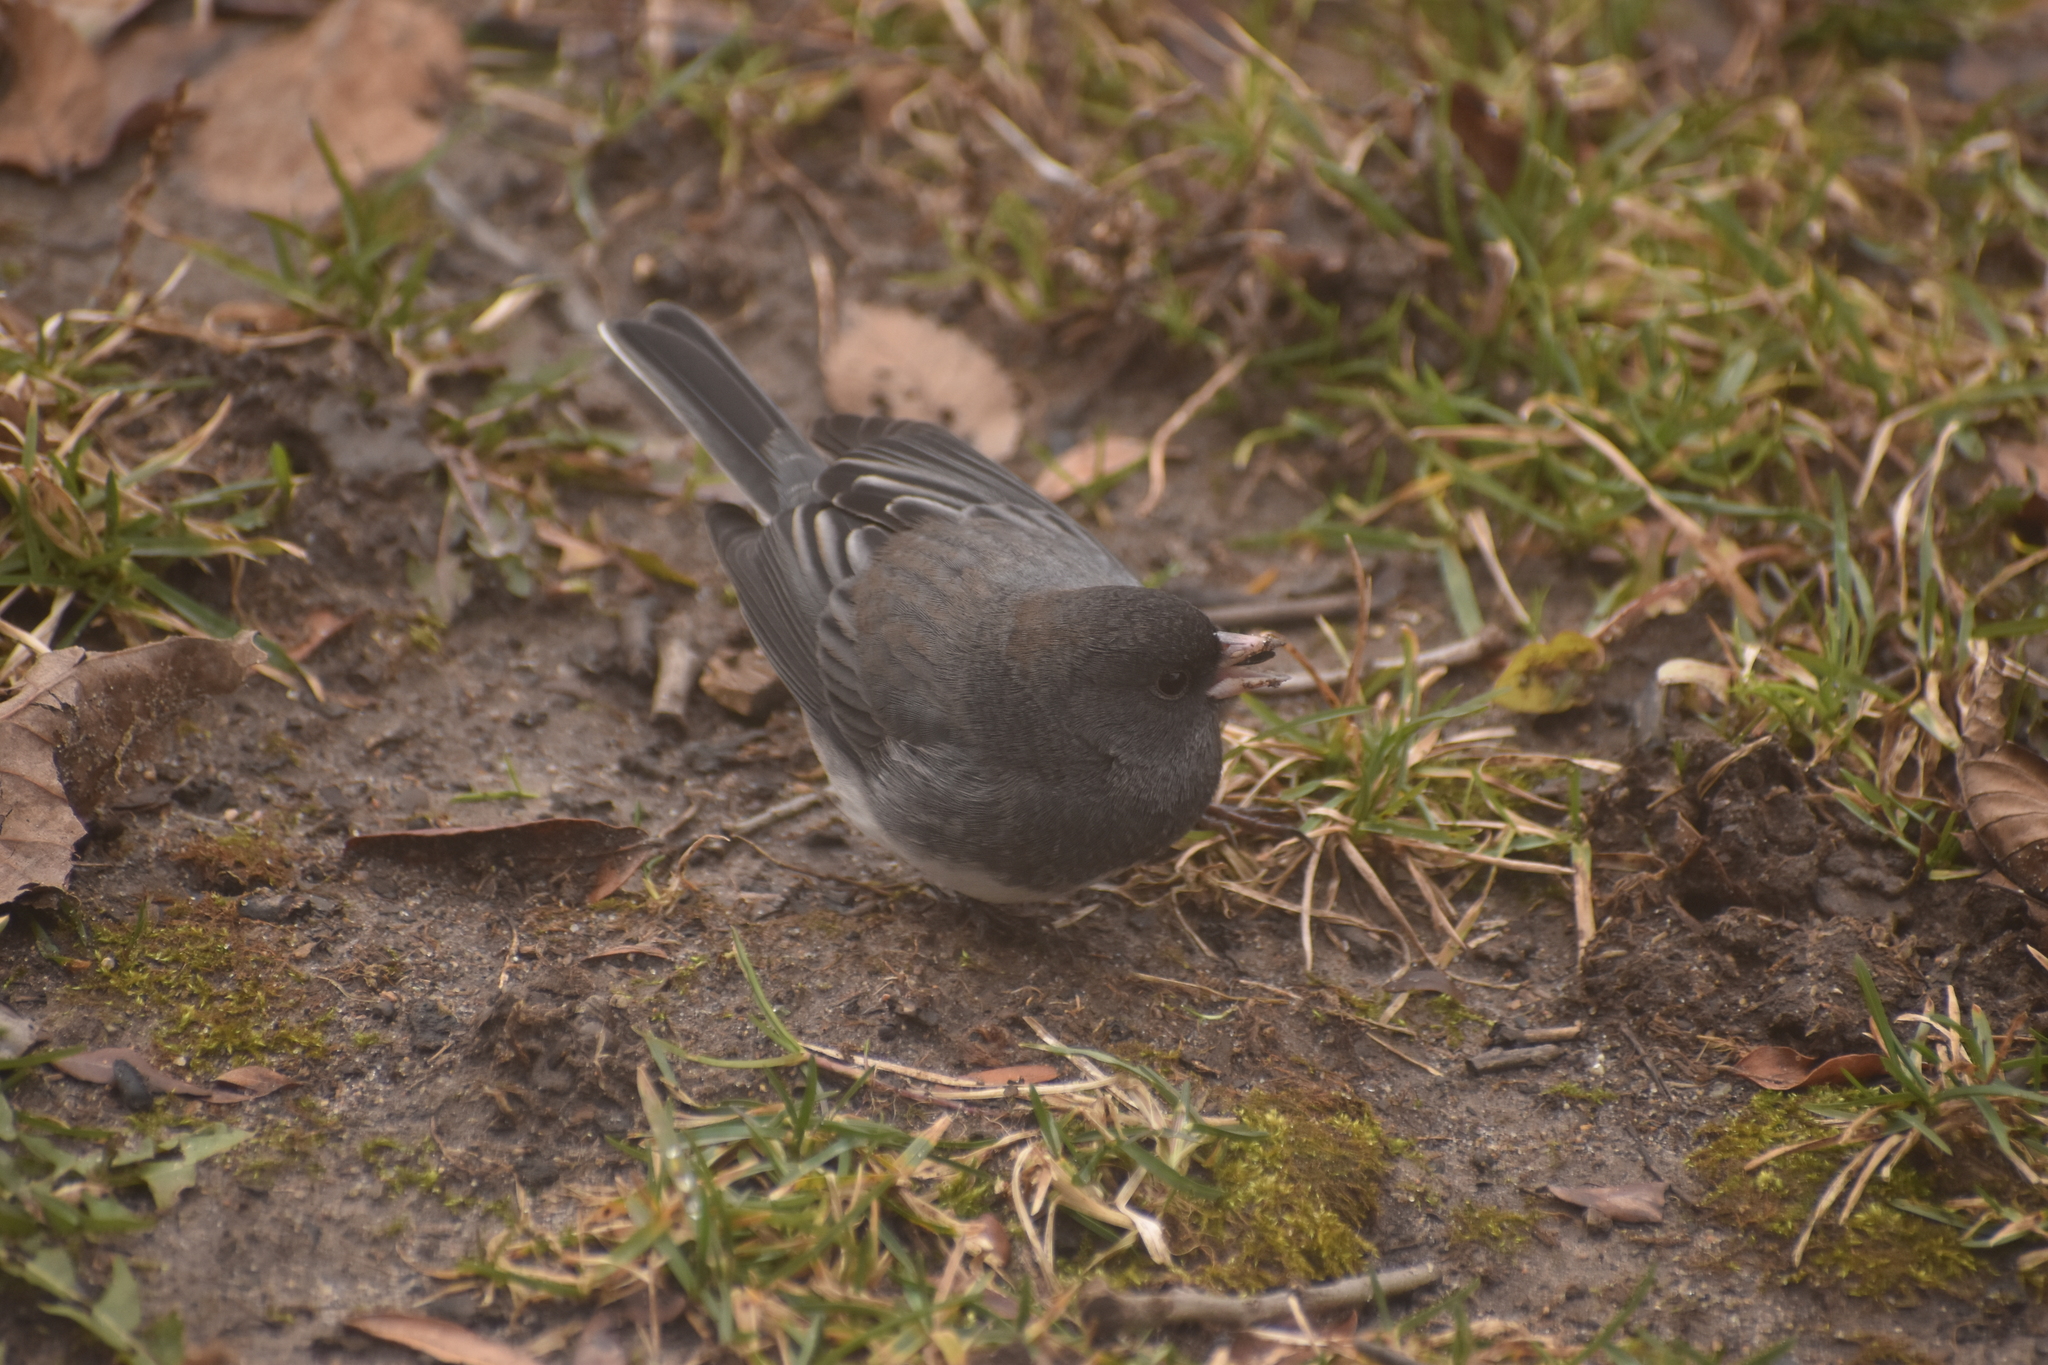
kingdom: Animalia
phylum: Chordata
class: Aves
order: Passeriformes
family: Passerellidae
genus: Junco
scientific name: Junco hyemalis
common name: Dark-eyed junco
